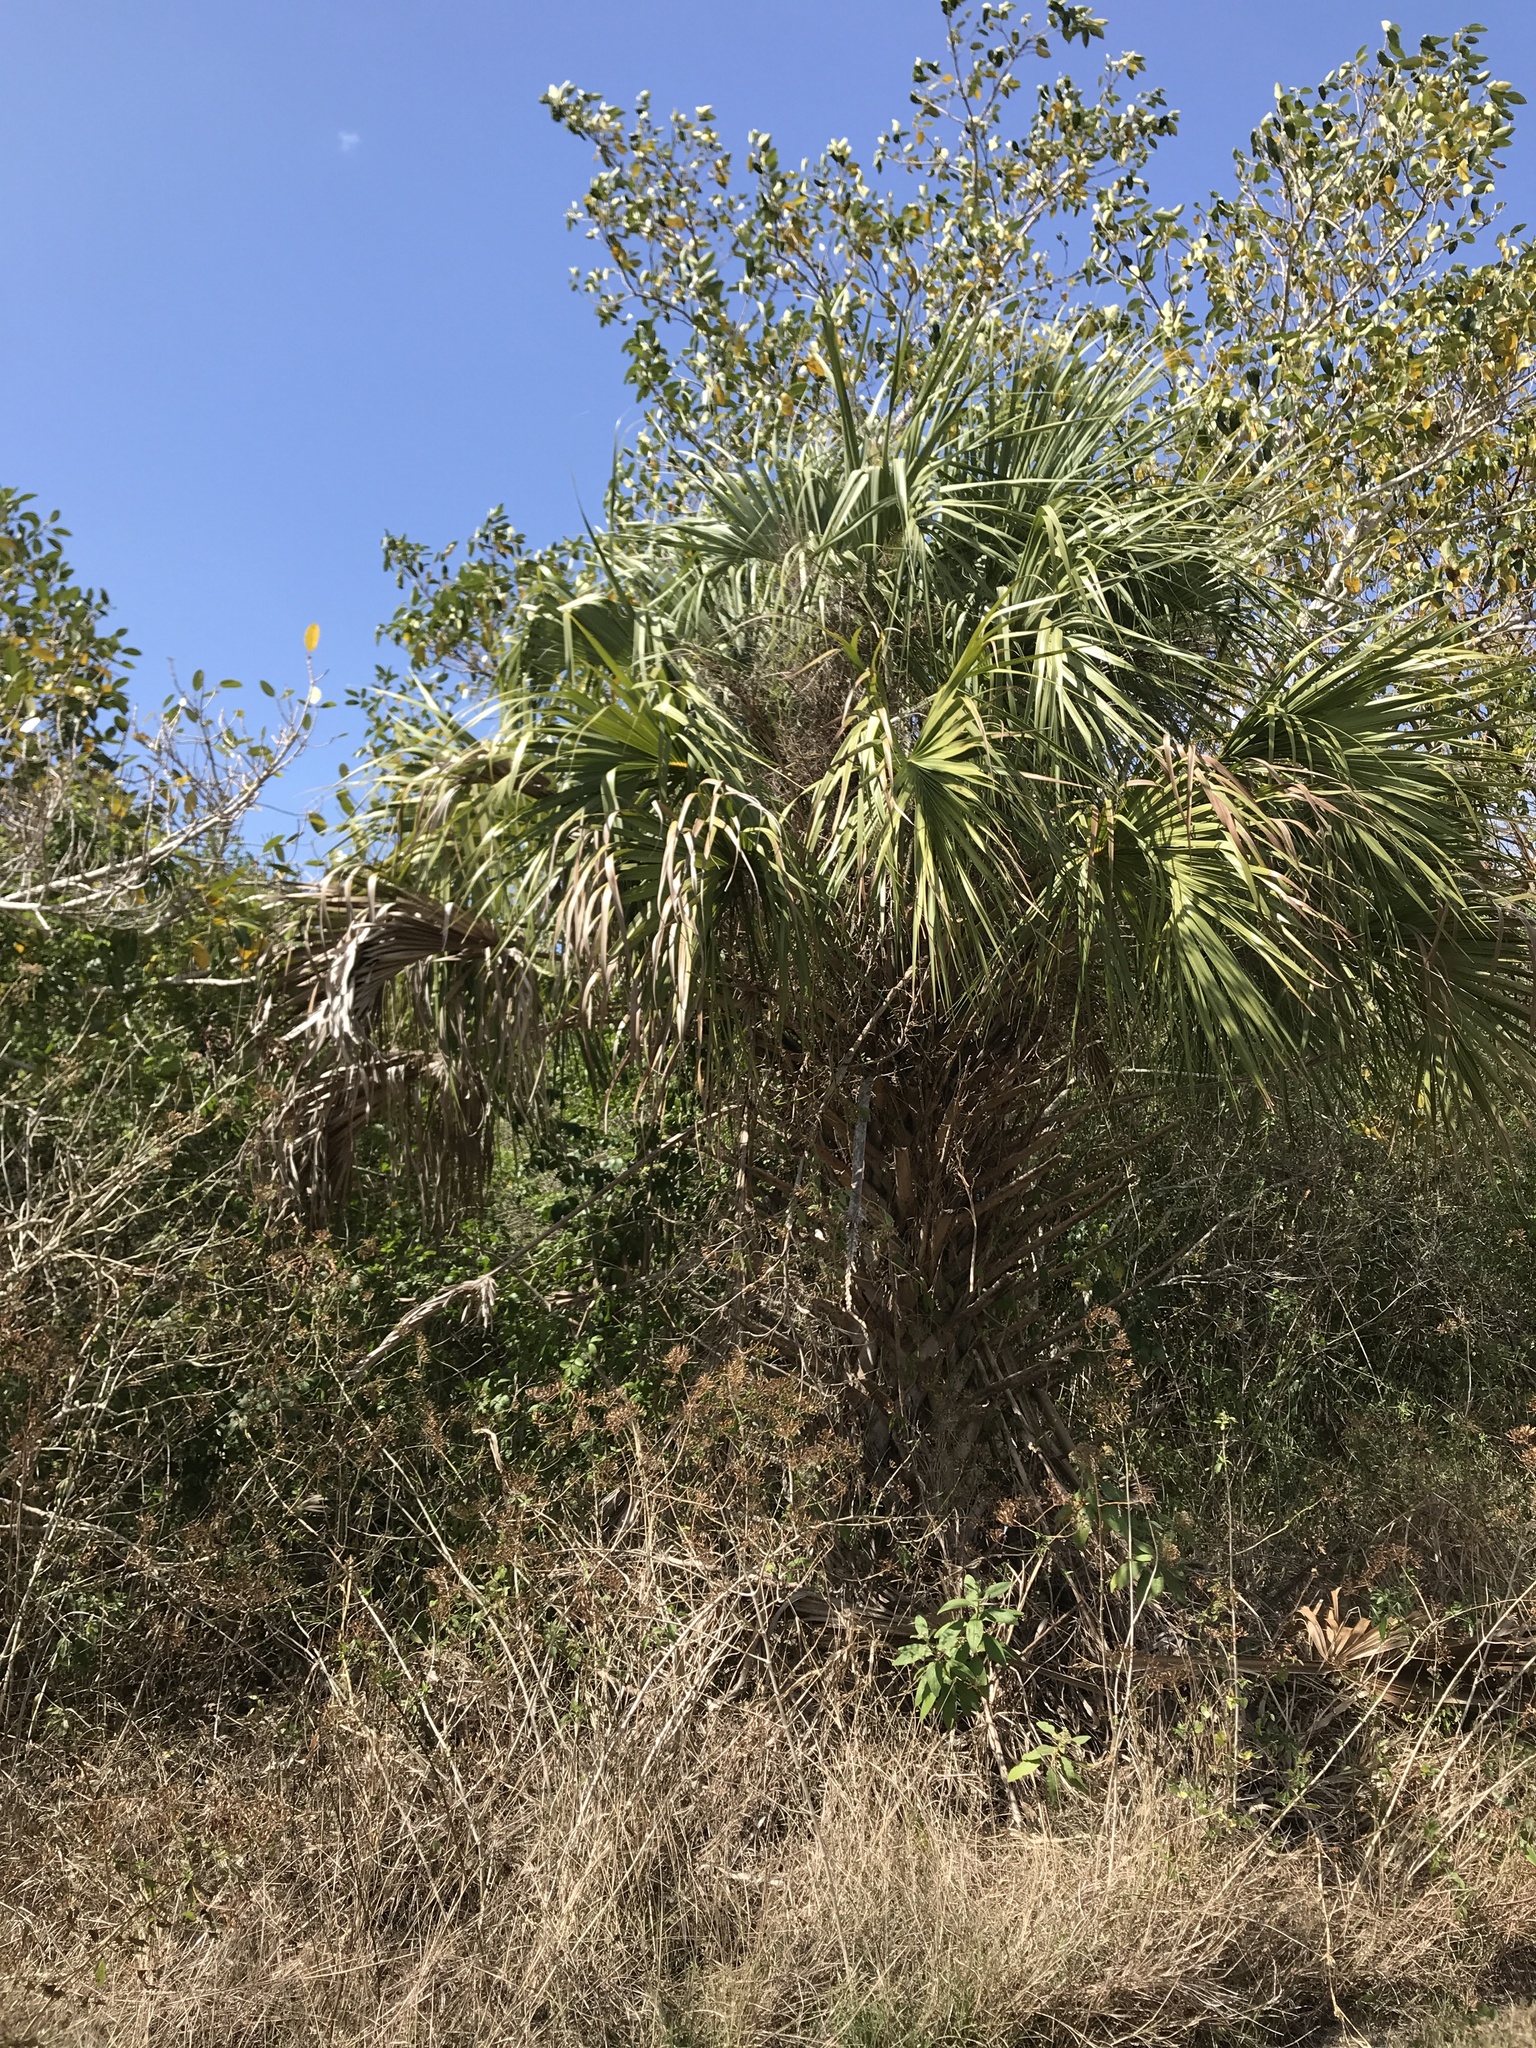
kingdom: Plantae
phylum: Tracheophyta
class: Liliopsida
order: Arecales
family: Arecaceae
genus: Sabal
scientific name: Sabal palmetto
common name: Blue palmetto
